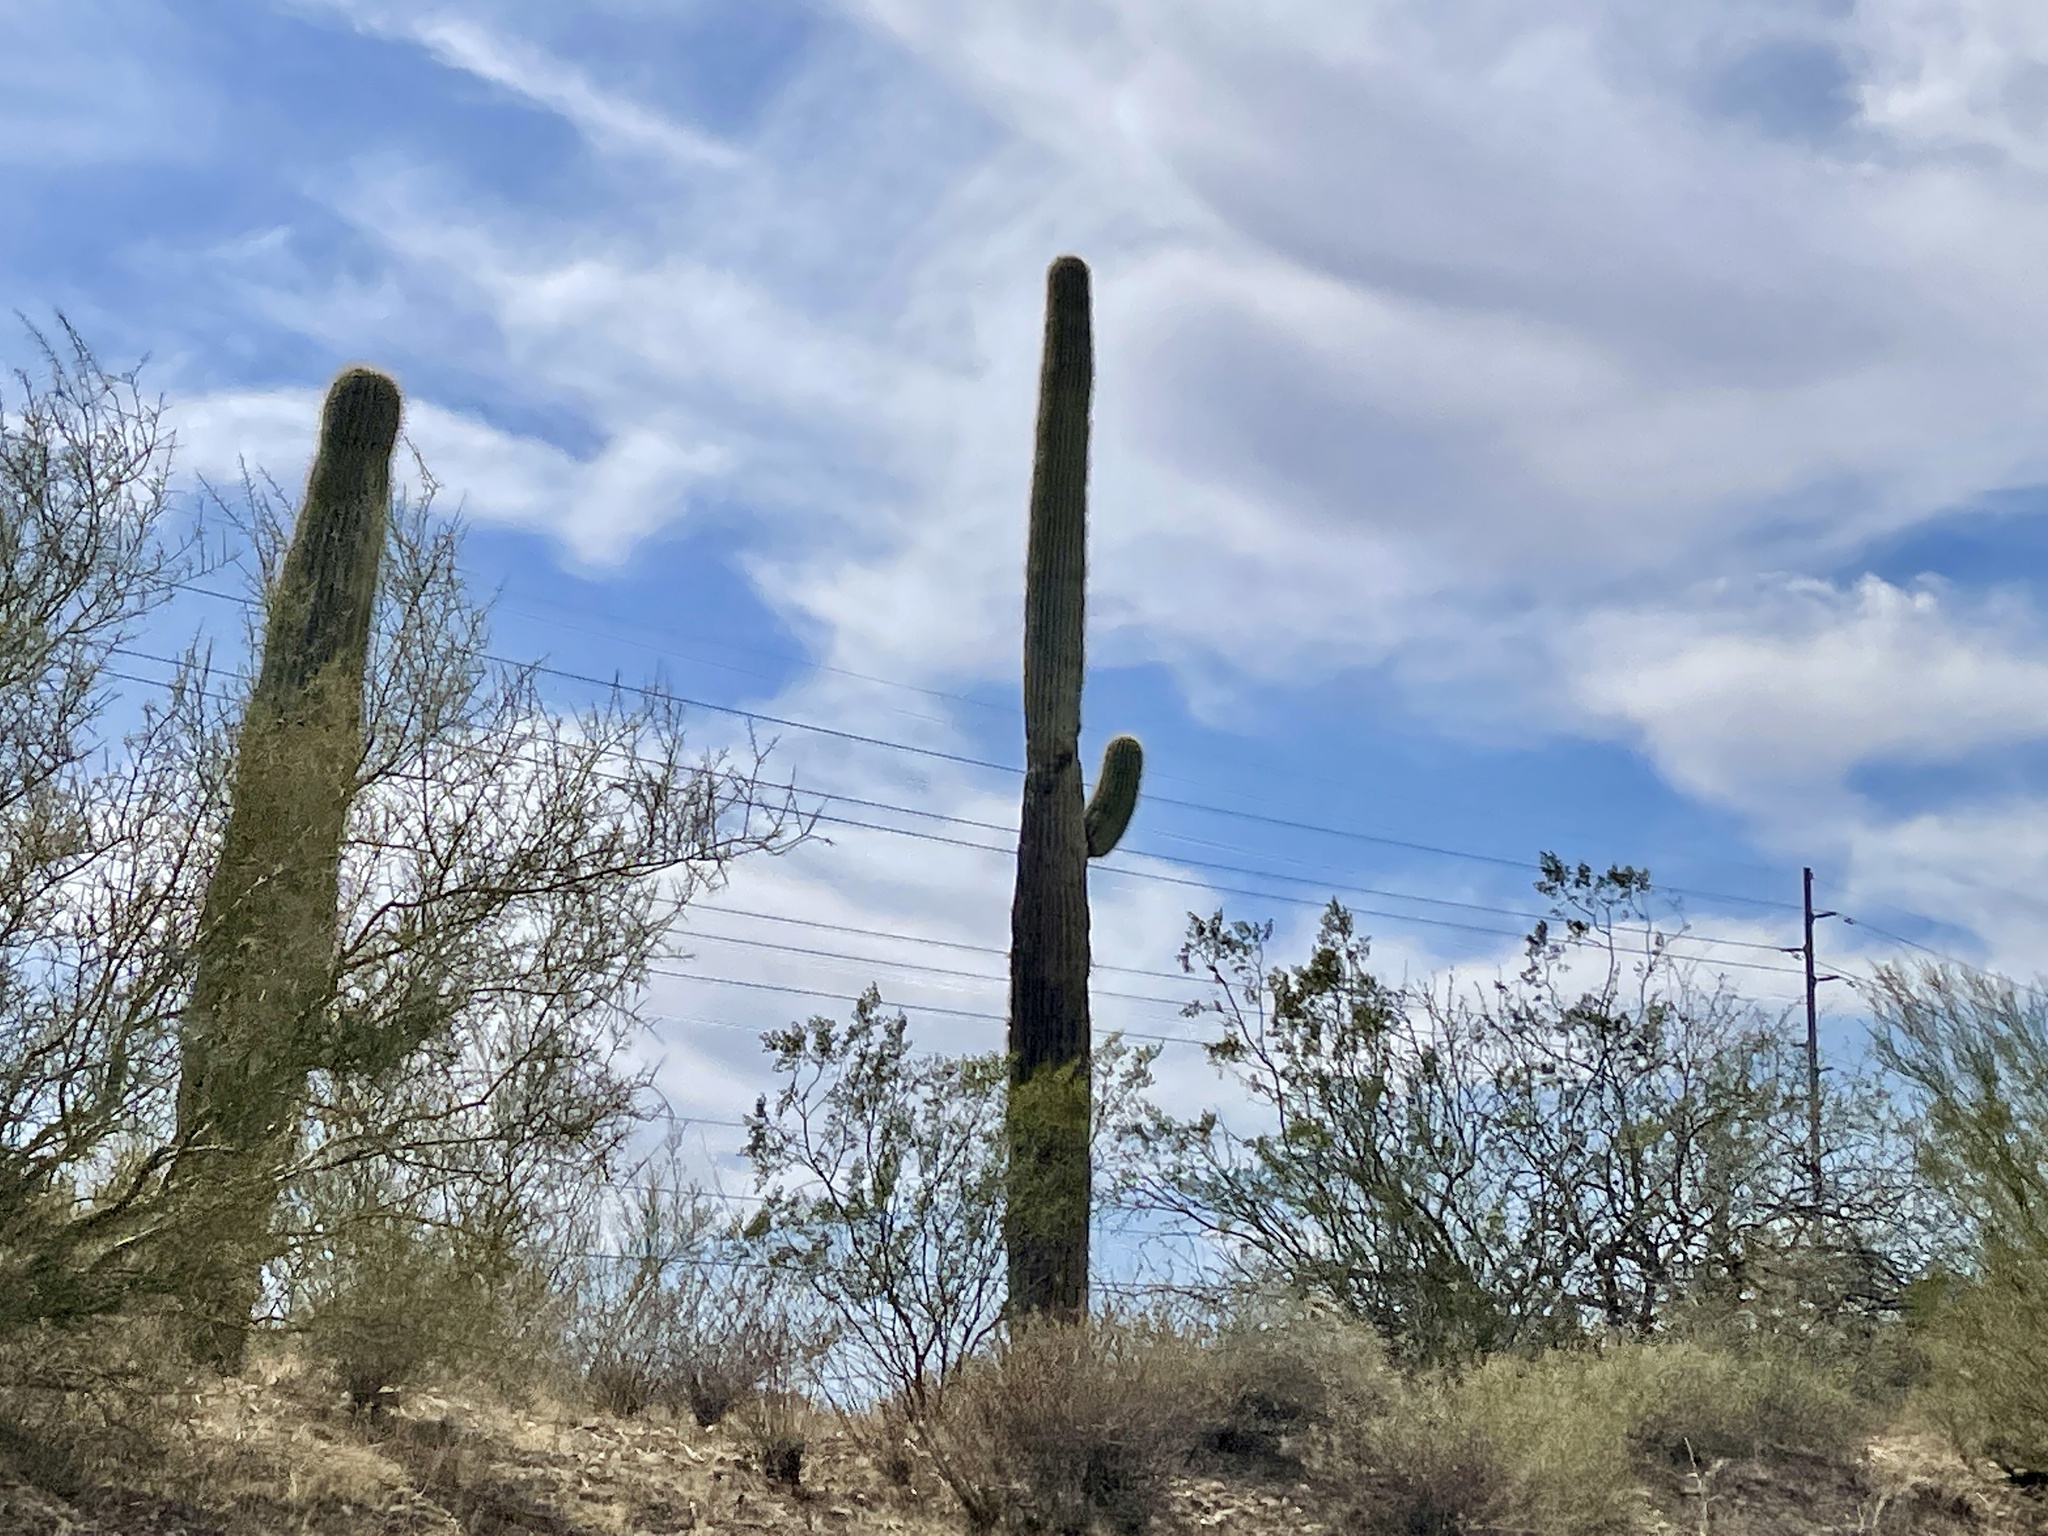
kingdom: Plantae
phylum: Tracheophyta
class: Magnoliopsida
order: Caryophyllales
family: Cactaceae
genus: Carnegiea
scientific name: Carnegiea gigantea
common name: Saguaro
